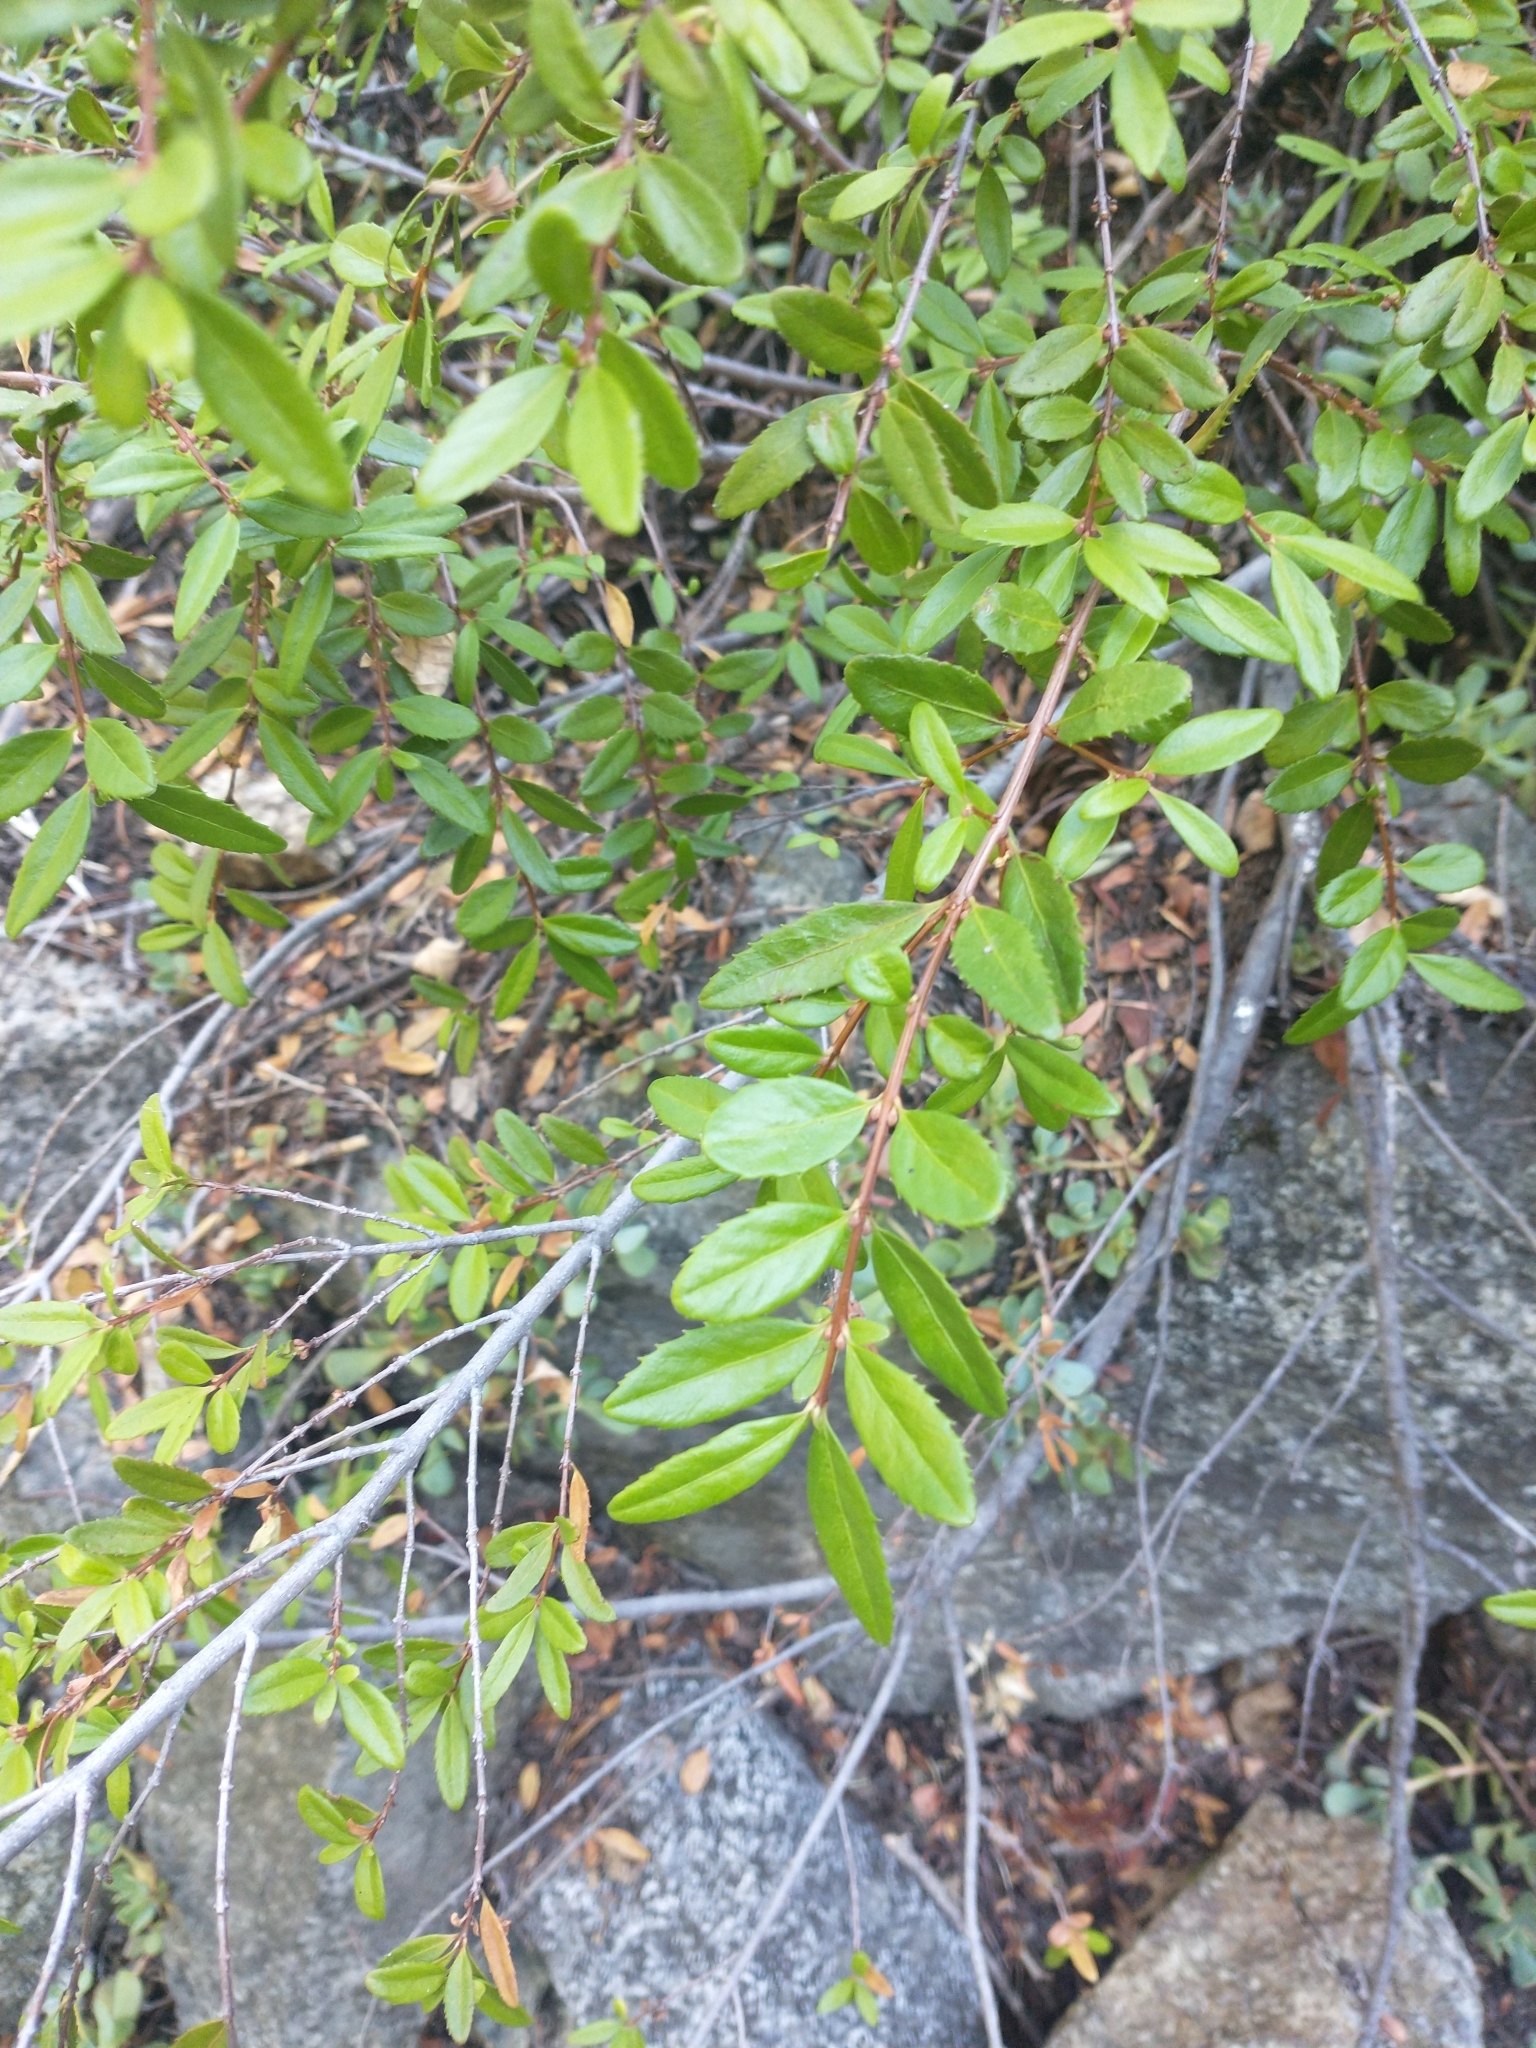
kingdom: Plantae
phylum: Tracheophyta
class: Magnoliopsida
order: Celastrales
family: Celastraceae
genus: Paxistima
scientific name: Paxistima myrsinites
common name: Mountain-lover
